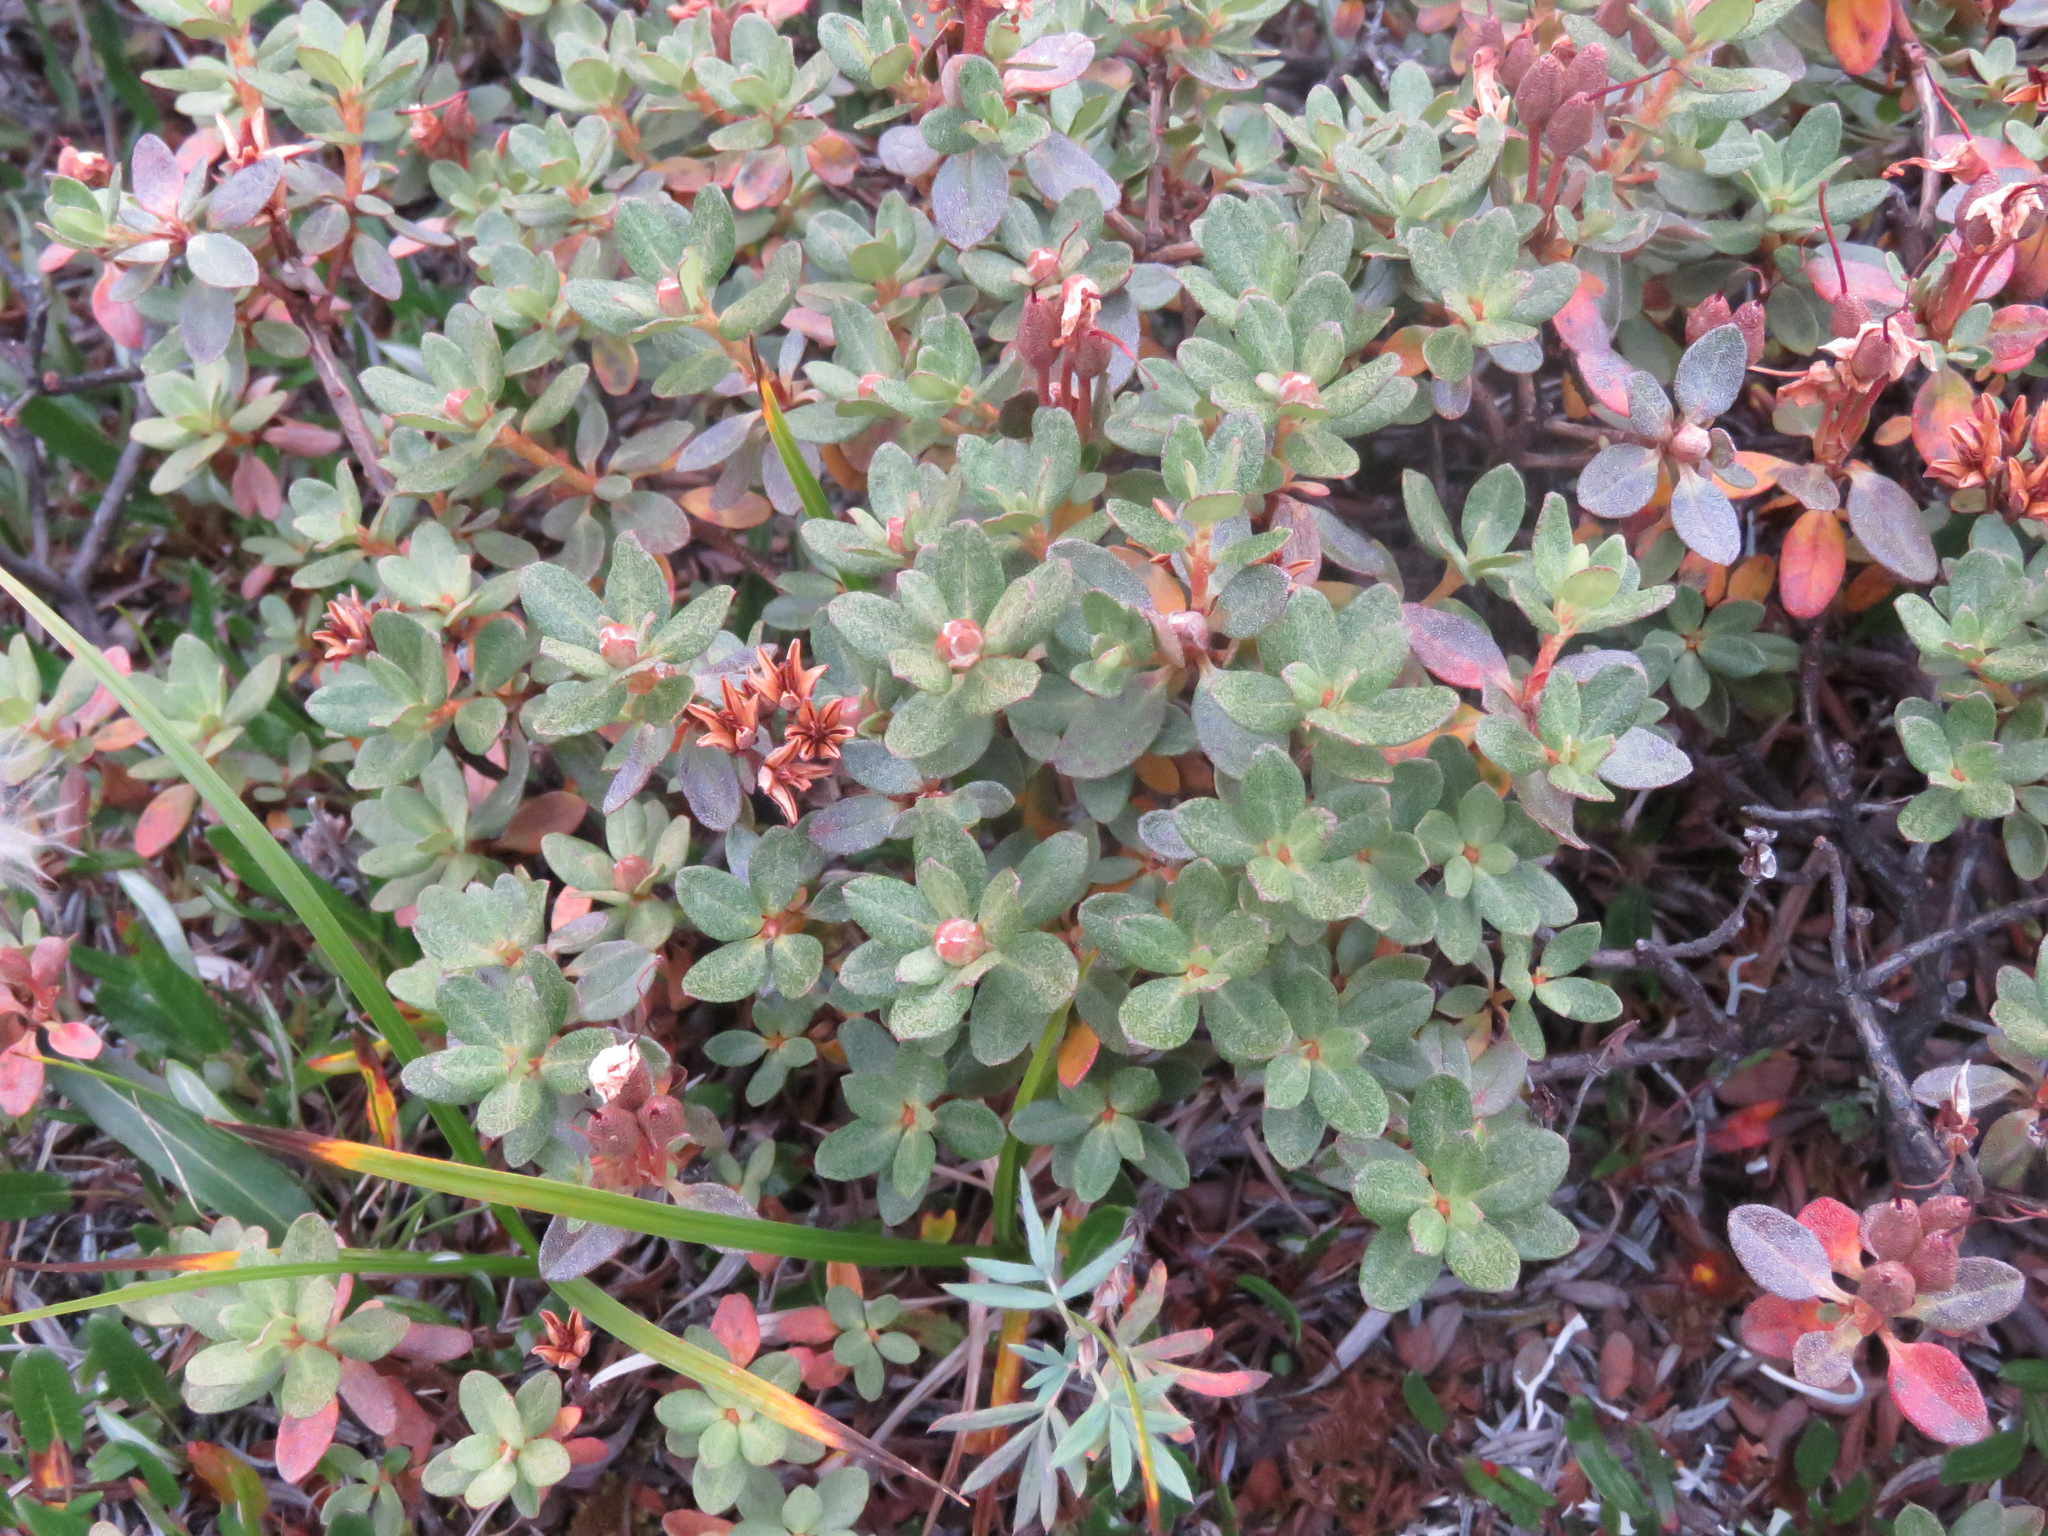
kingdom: Plantae
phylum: Tracheophyta
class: Magnoliopsida
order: Ericales
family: Ericaceae
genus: Rhododendron
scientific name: Rhododendron lapponicum
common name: Lapland rhododendron
